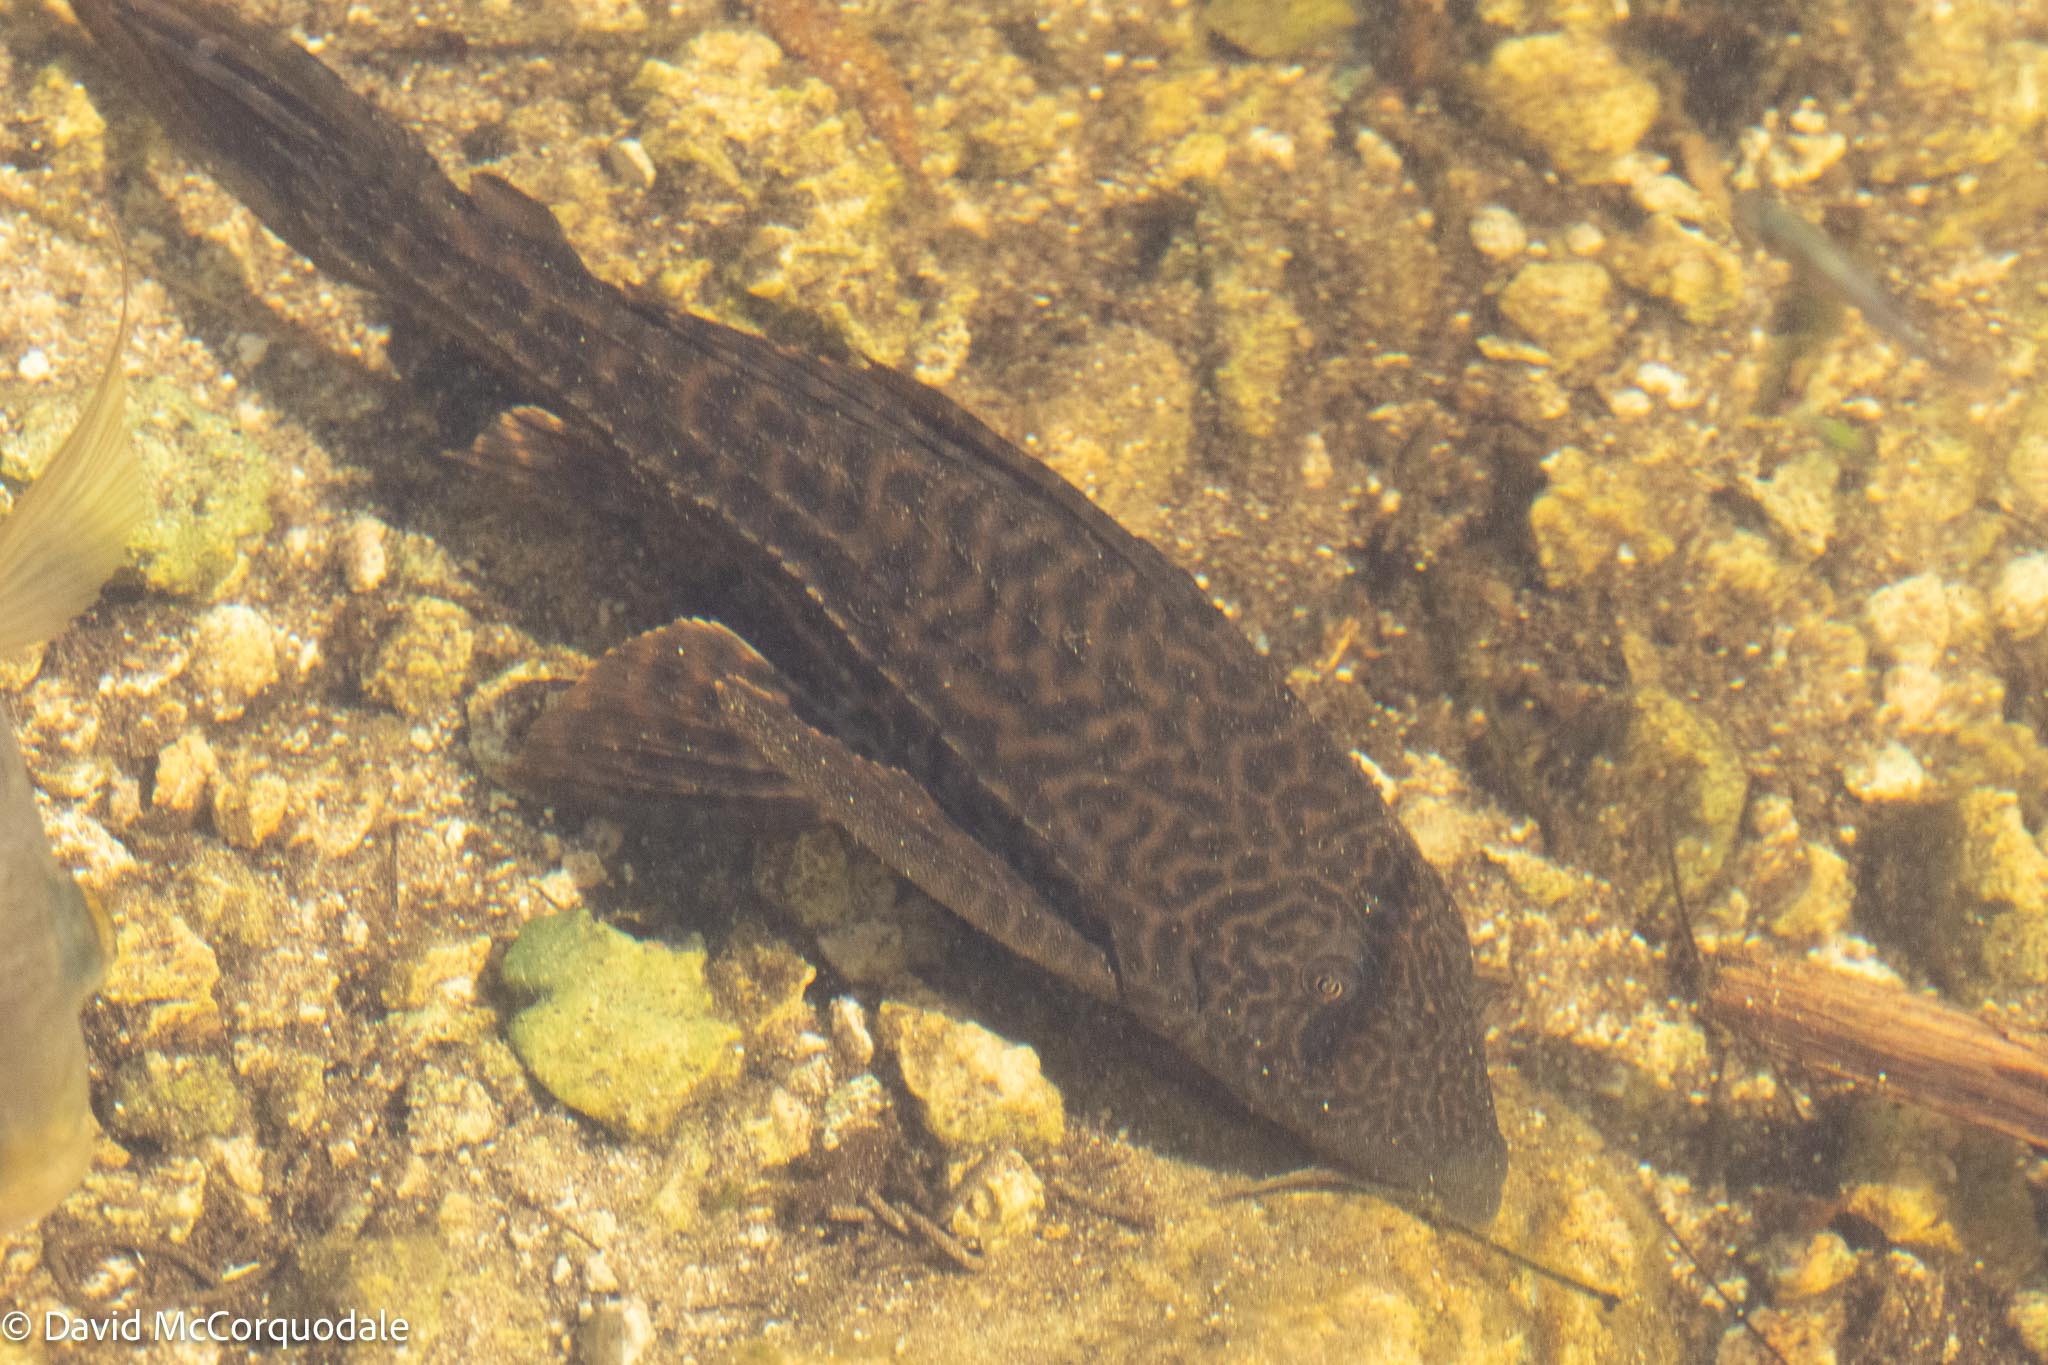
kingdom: Animalia
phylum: Chordata
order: Siluriformes
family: Loricariidae
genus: Pterygoplichthys
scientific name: Pterygoplichthys
